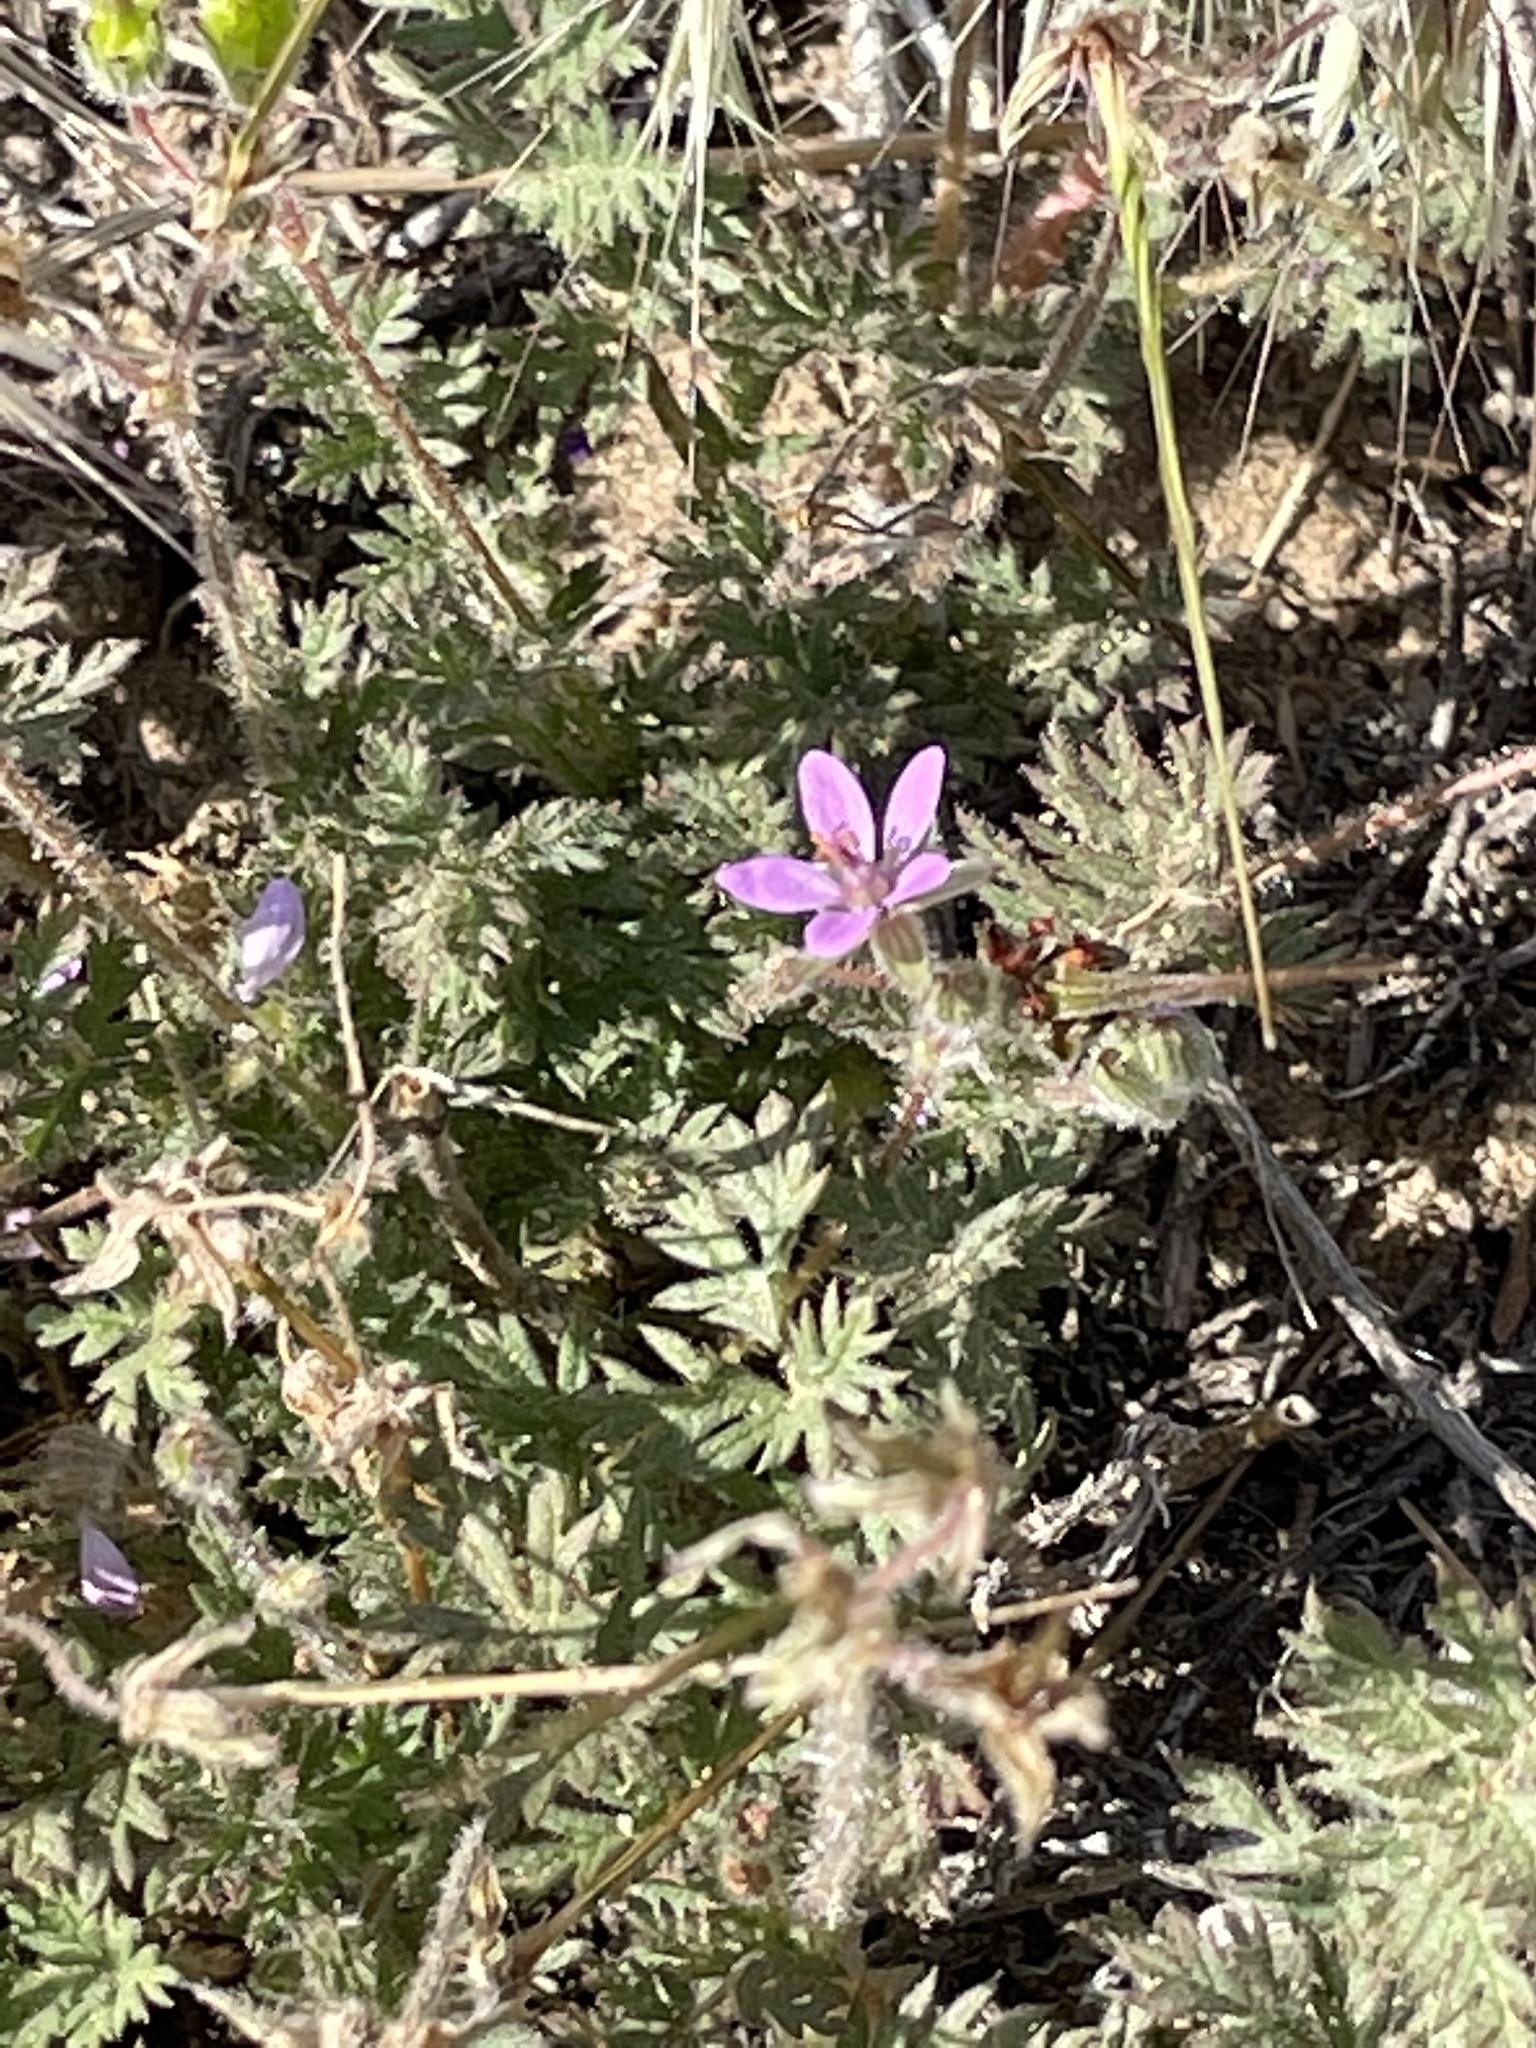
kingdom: Plantae
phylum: Tracheophyta
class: Magnoliopsida
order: Geraniales
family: Geraniaceae
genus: Erodium
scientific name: Erodium cicutarium
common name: Common stork's-bill
